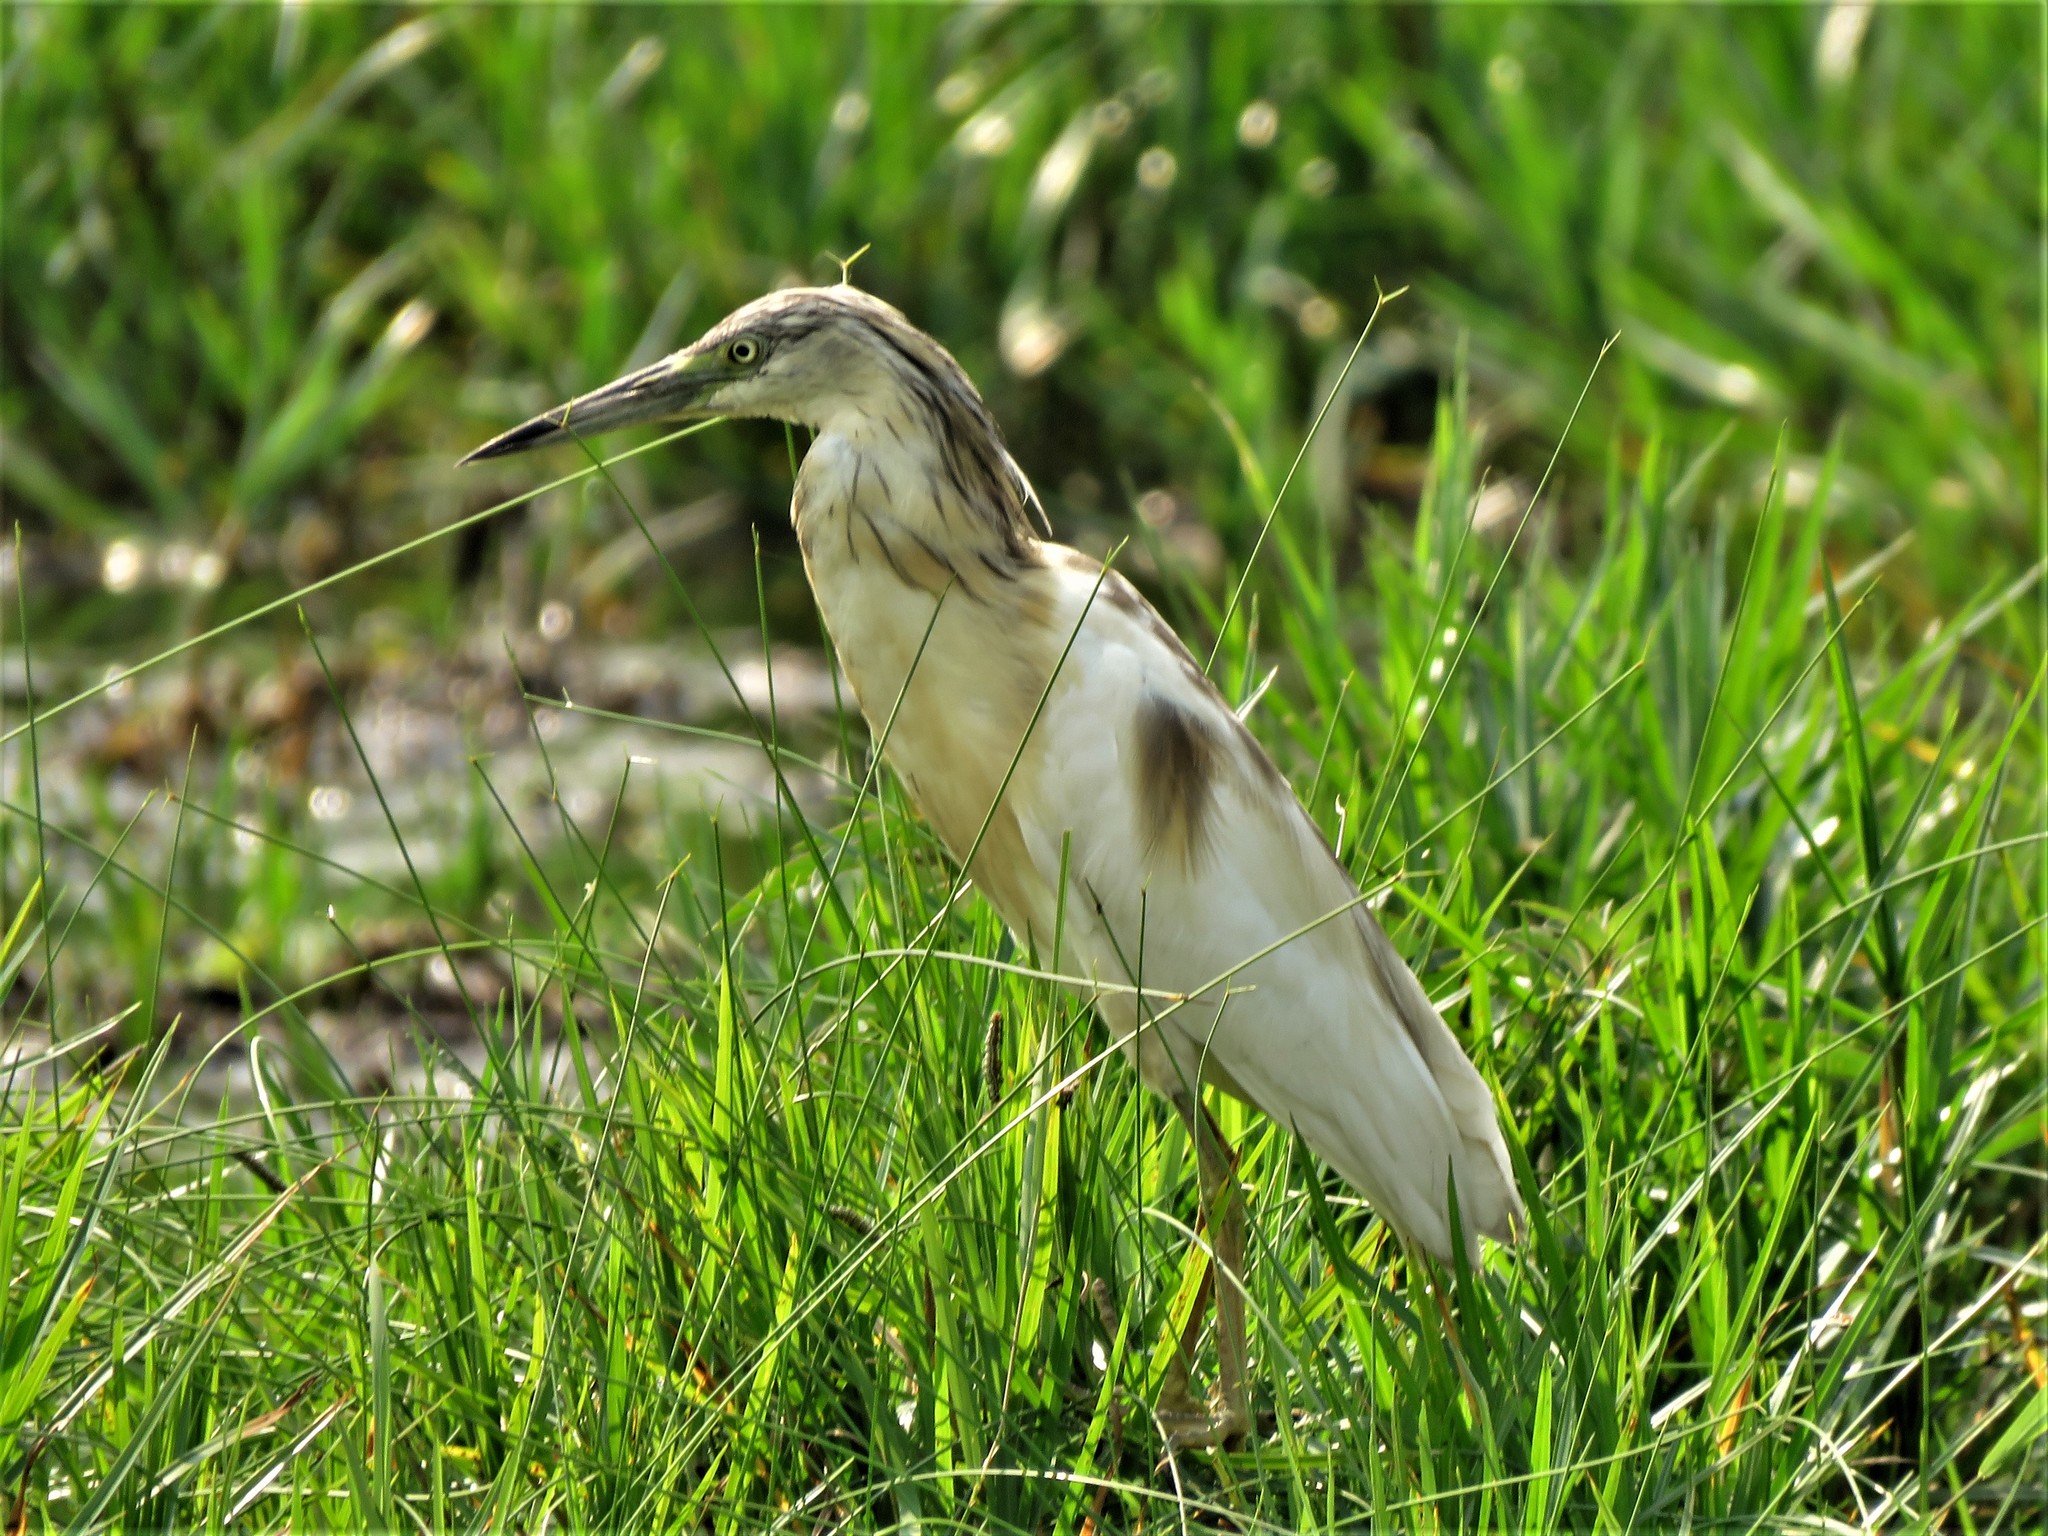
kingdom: Animalia
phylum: Chordata
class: Aves
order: Pelecaniformes
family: Ardeidae
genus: Ardeola
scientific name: Ardeola ralloides
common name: Squacco heron
